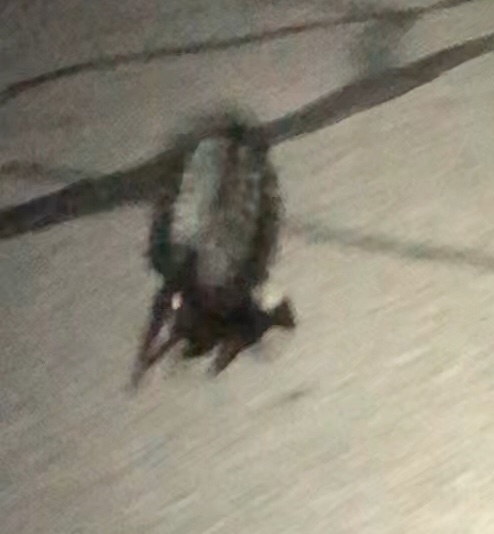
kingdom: Animalia
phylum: Chordata
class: Mammalia
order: Carnivora
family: Mephitidae
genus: Mephitis
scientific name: Mephitis mephitis
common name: Striped skunk
